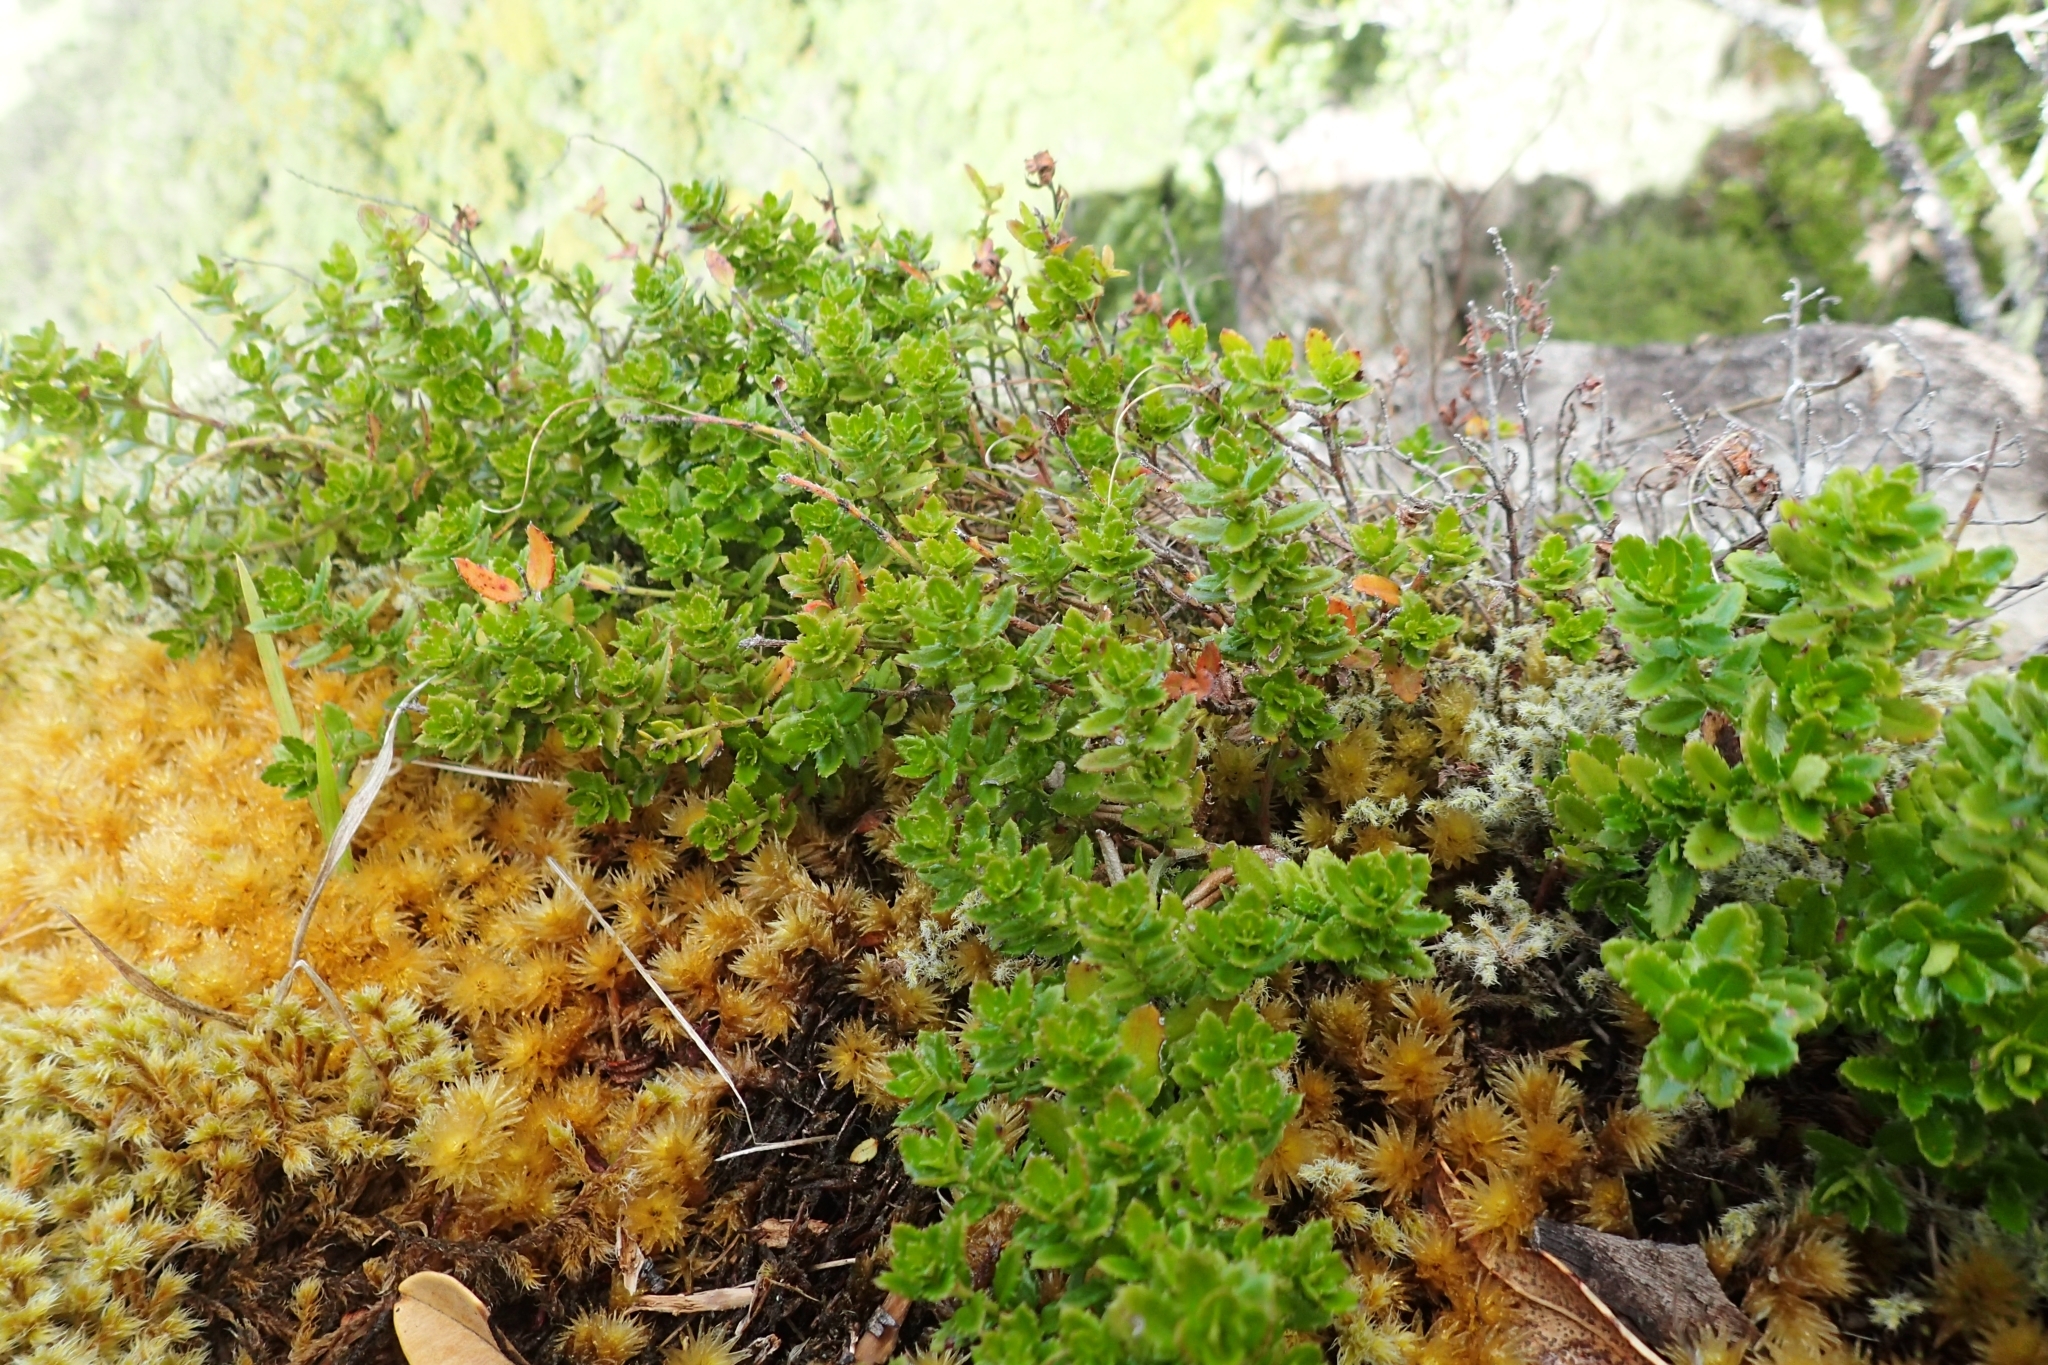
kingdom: Plantae
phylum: Tracheophyta
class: Magnoliopsida
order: Saxifragales
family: Haloragaceae
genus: Gonocarpus
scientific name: Gonocarpus incanus
